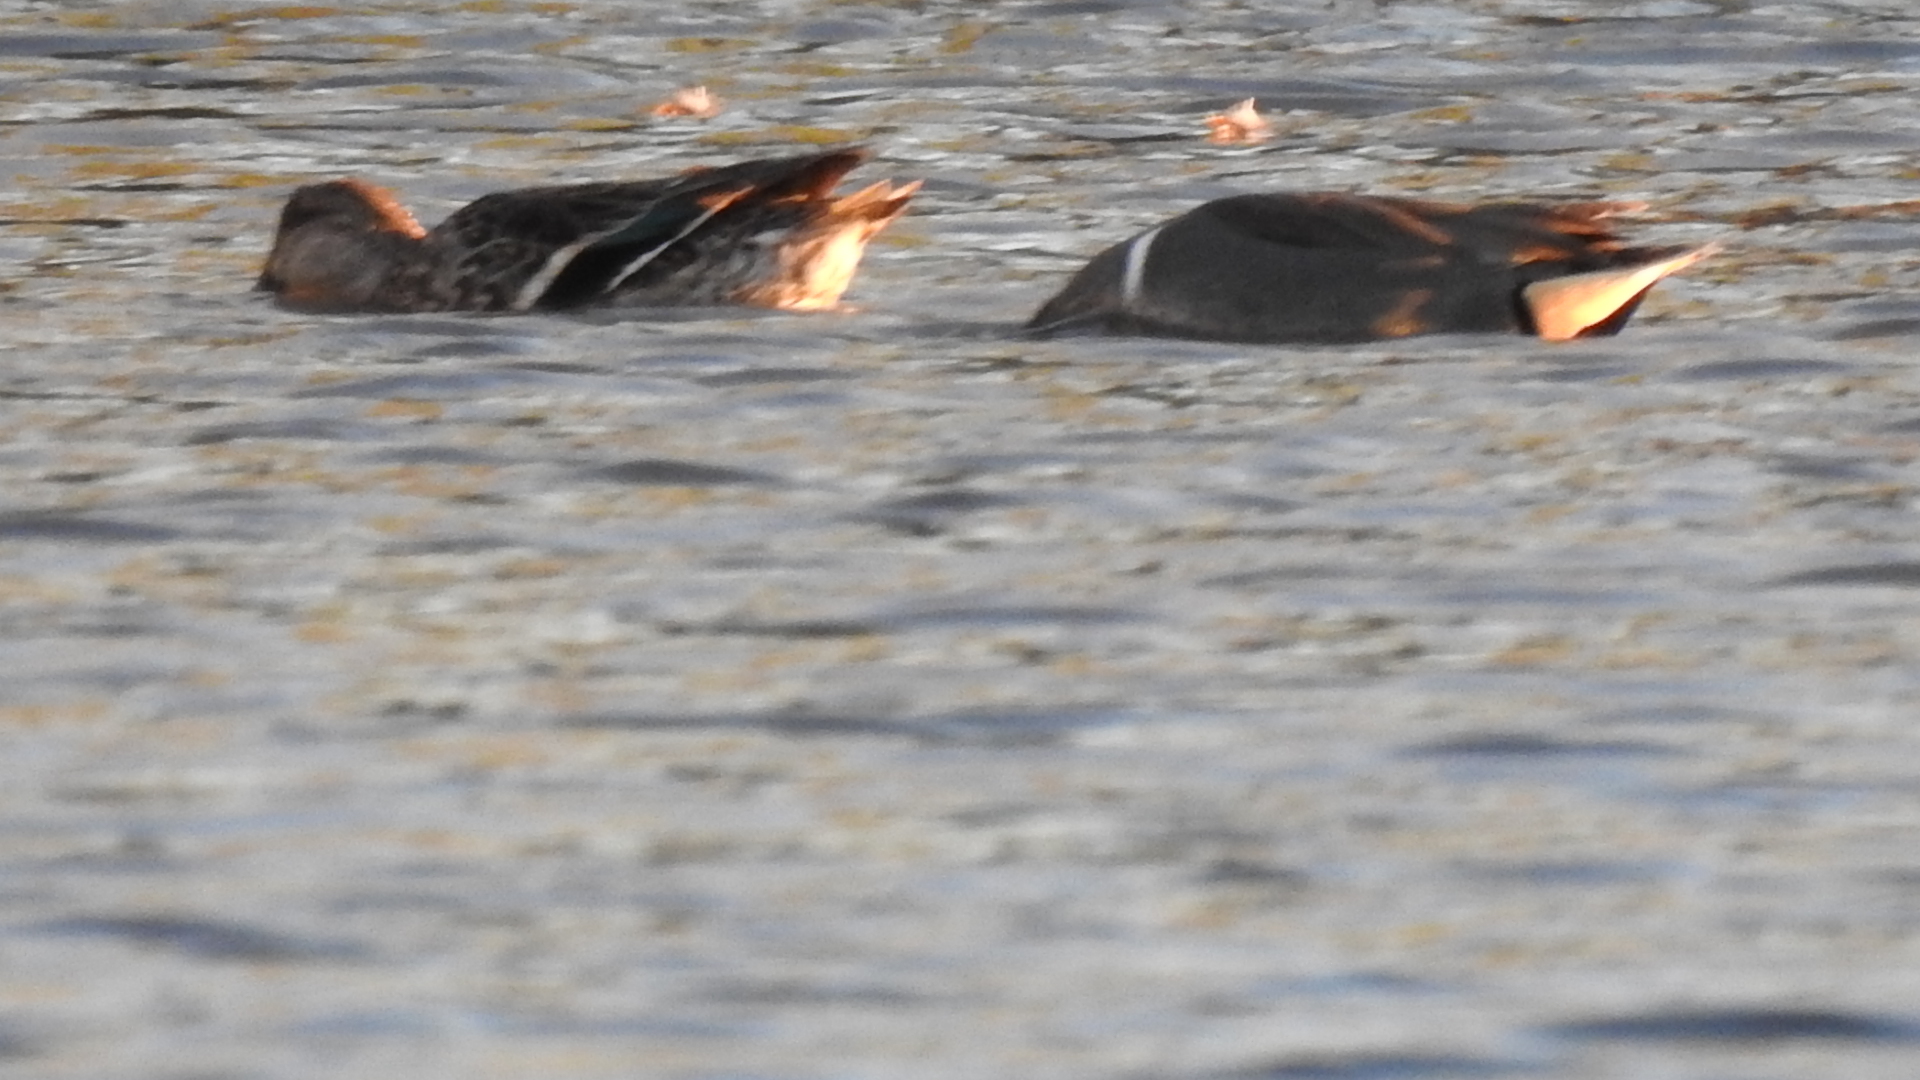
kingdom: Animalia
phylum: Chordata
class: Aves
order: Anseriformes
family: Anatidae
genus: Anas
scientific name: Anas crecca
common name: Eurasian teal
